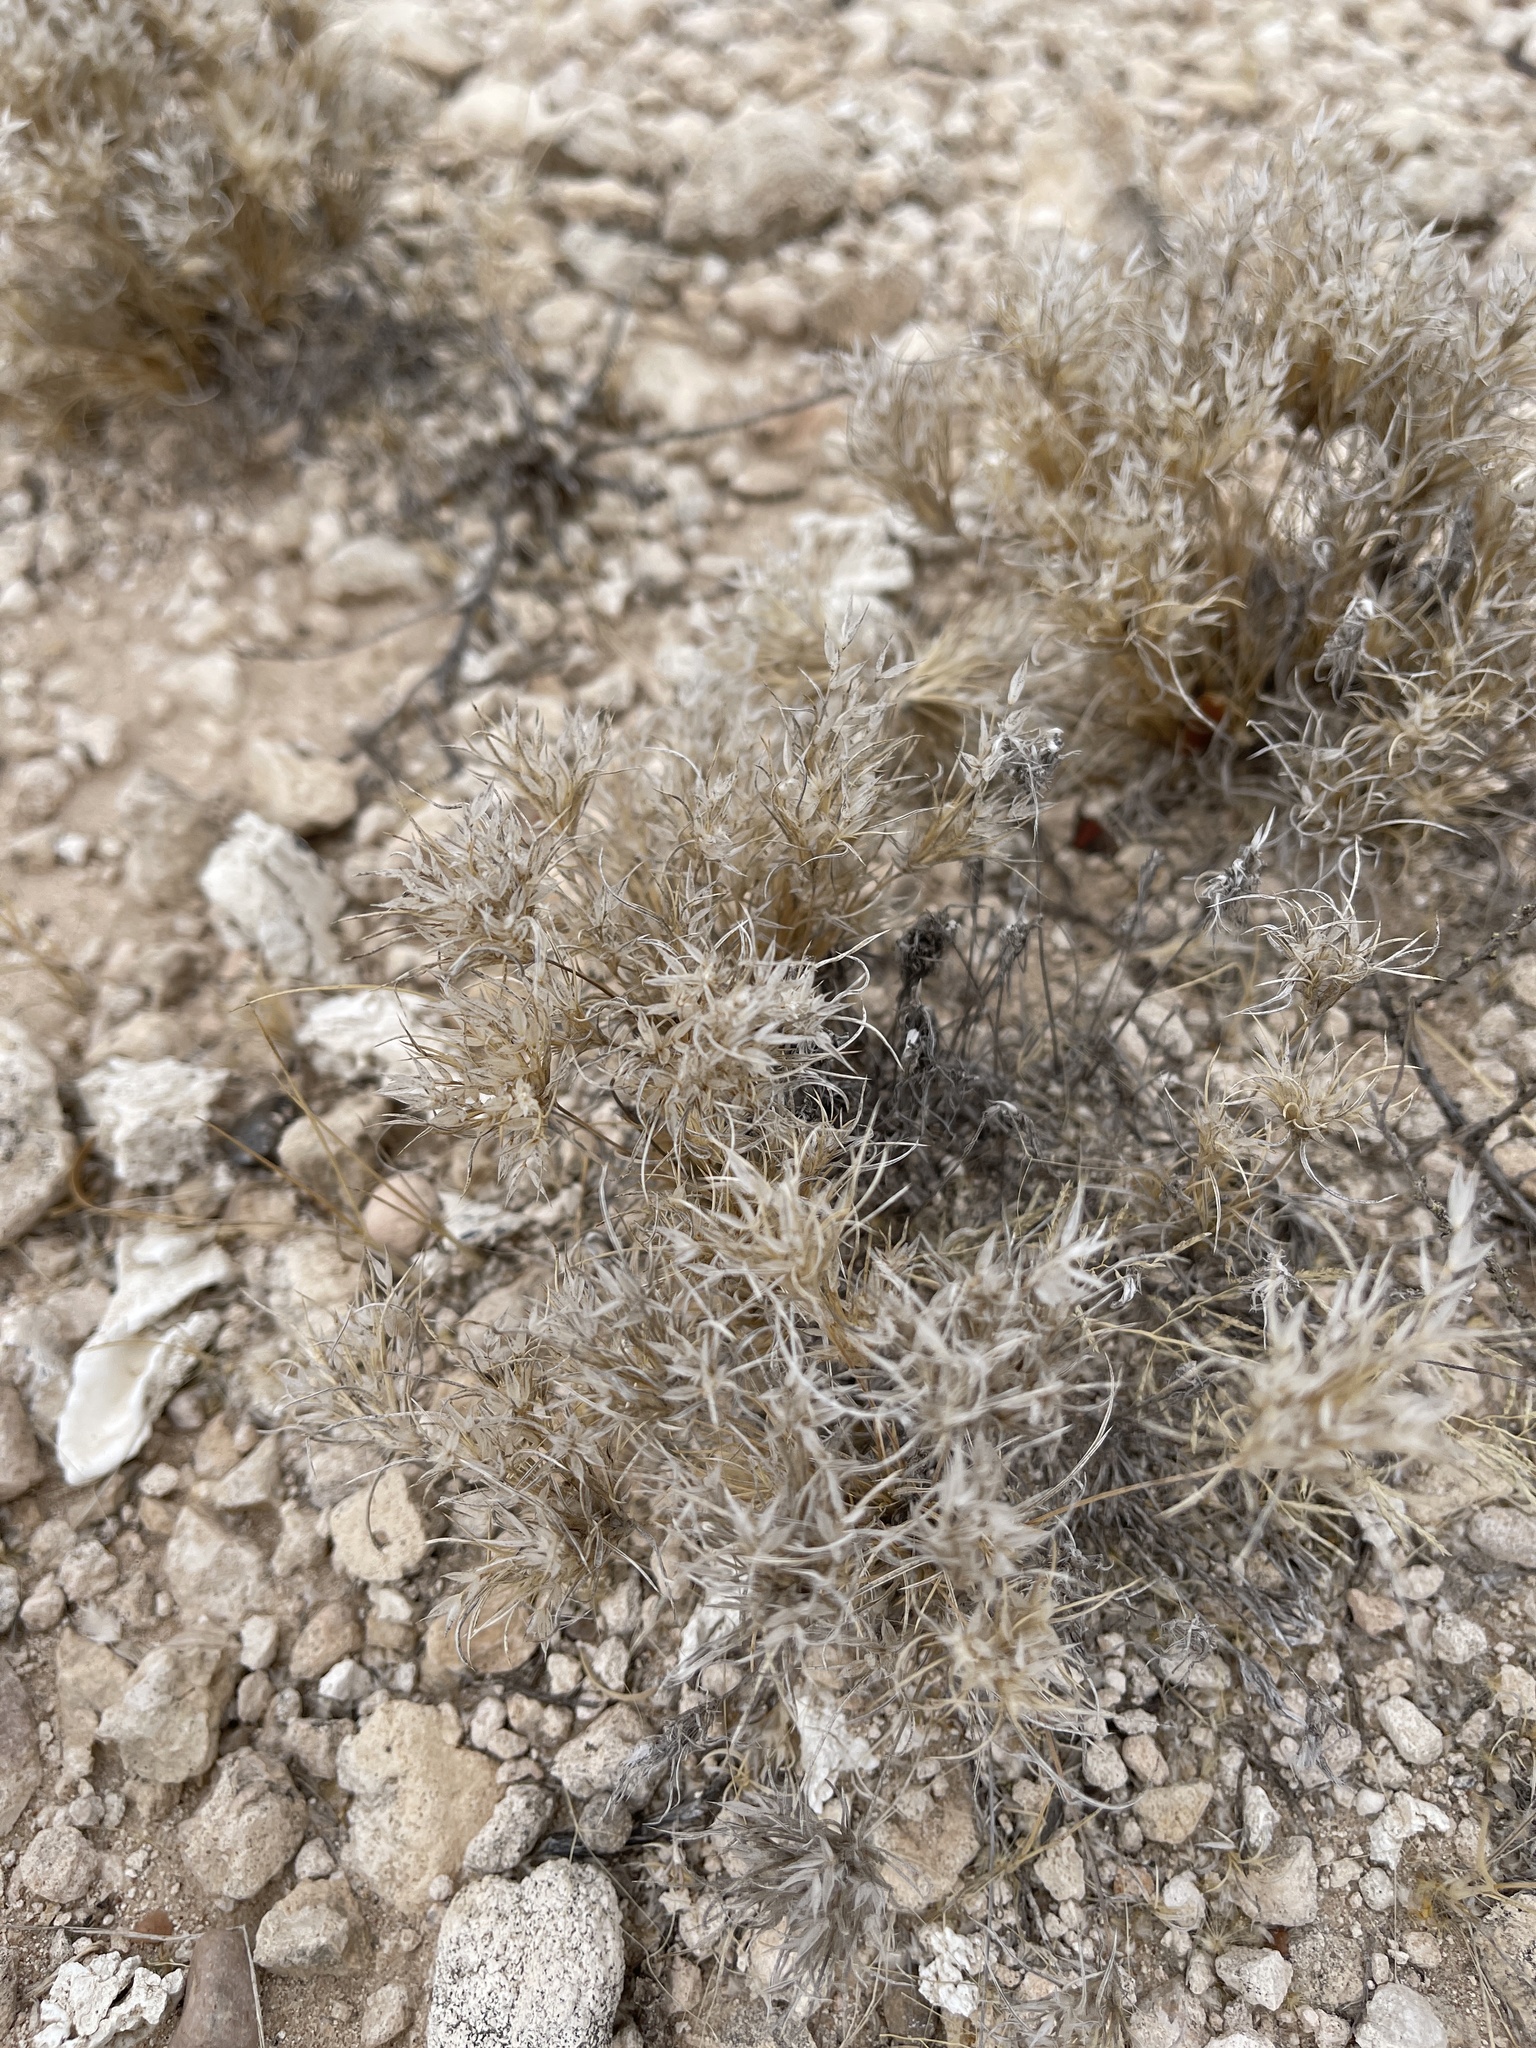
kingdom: Plantae
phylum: Tracheophyta
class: Liliopsida
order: Poales
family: Poaceae
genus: Dasyochloa
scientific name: Dasyochloa pulchella
